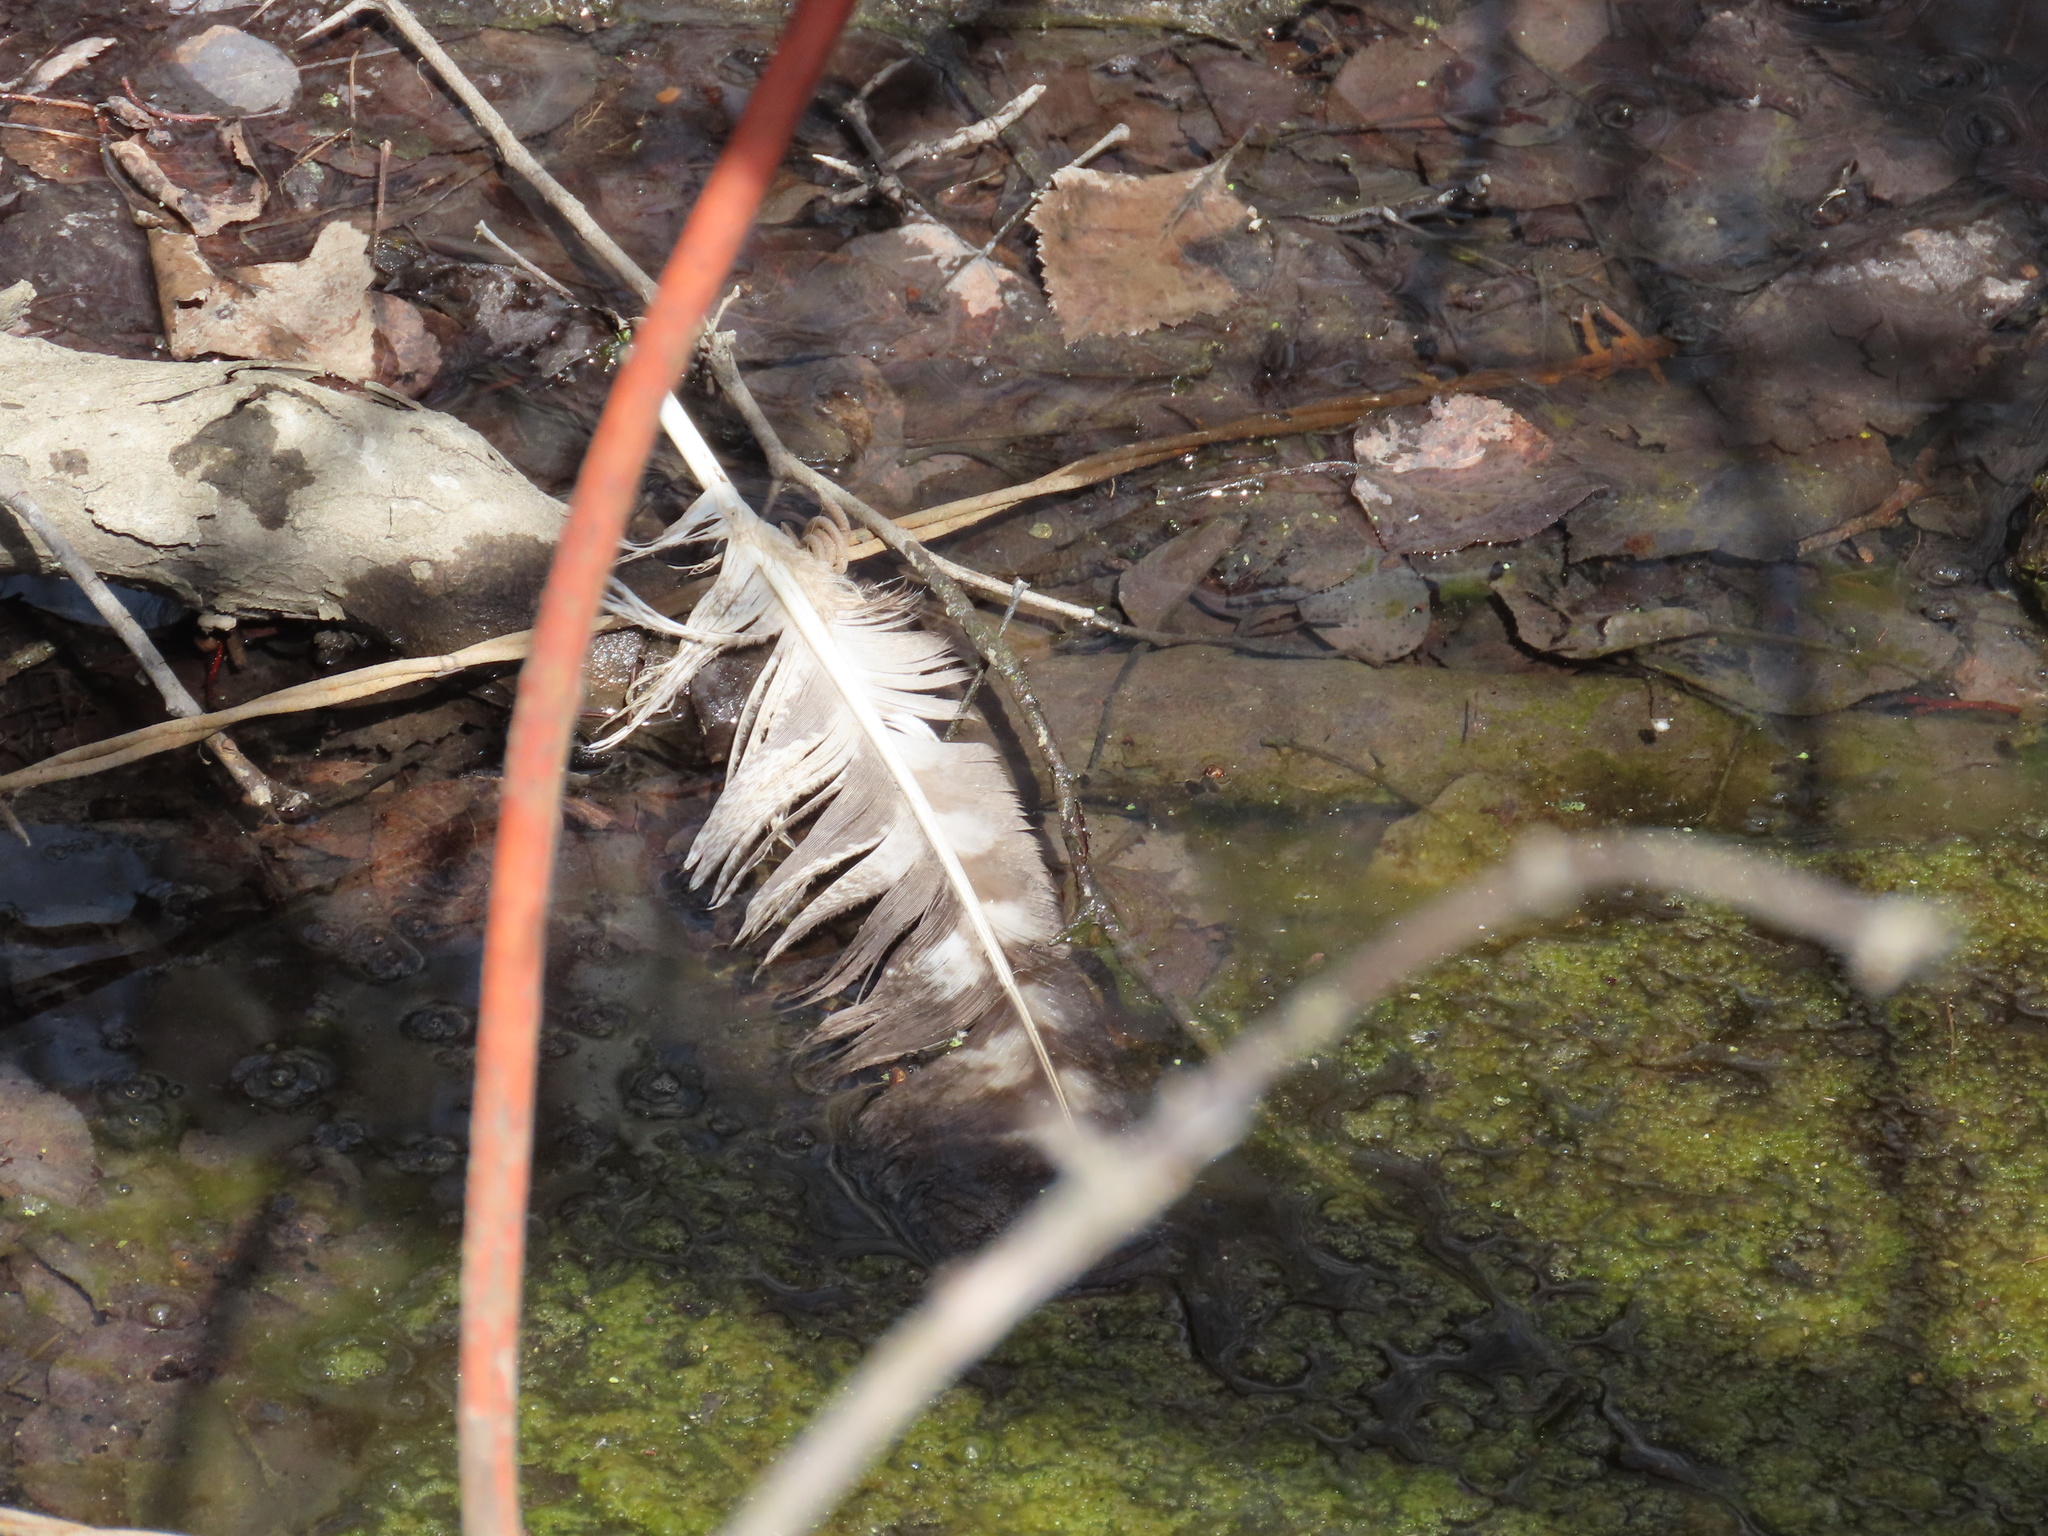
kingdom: Animalia
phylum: Chordata
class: Aves
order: Strigiformes
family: Strigidae
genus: Bubo
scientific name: Bubo virginianus
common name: Great horned owl
